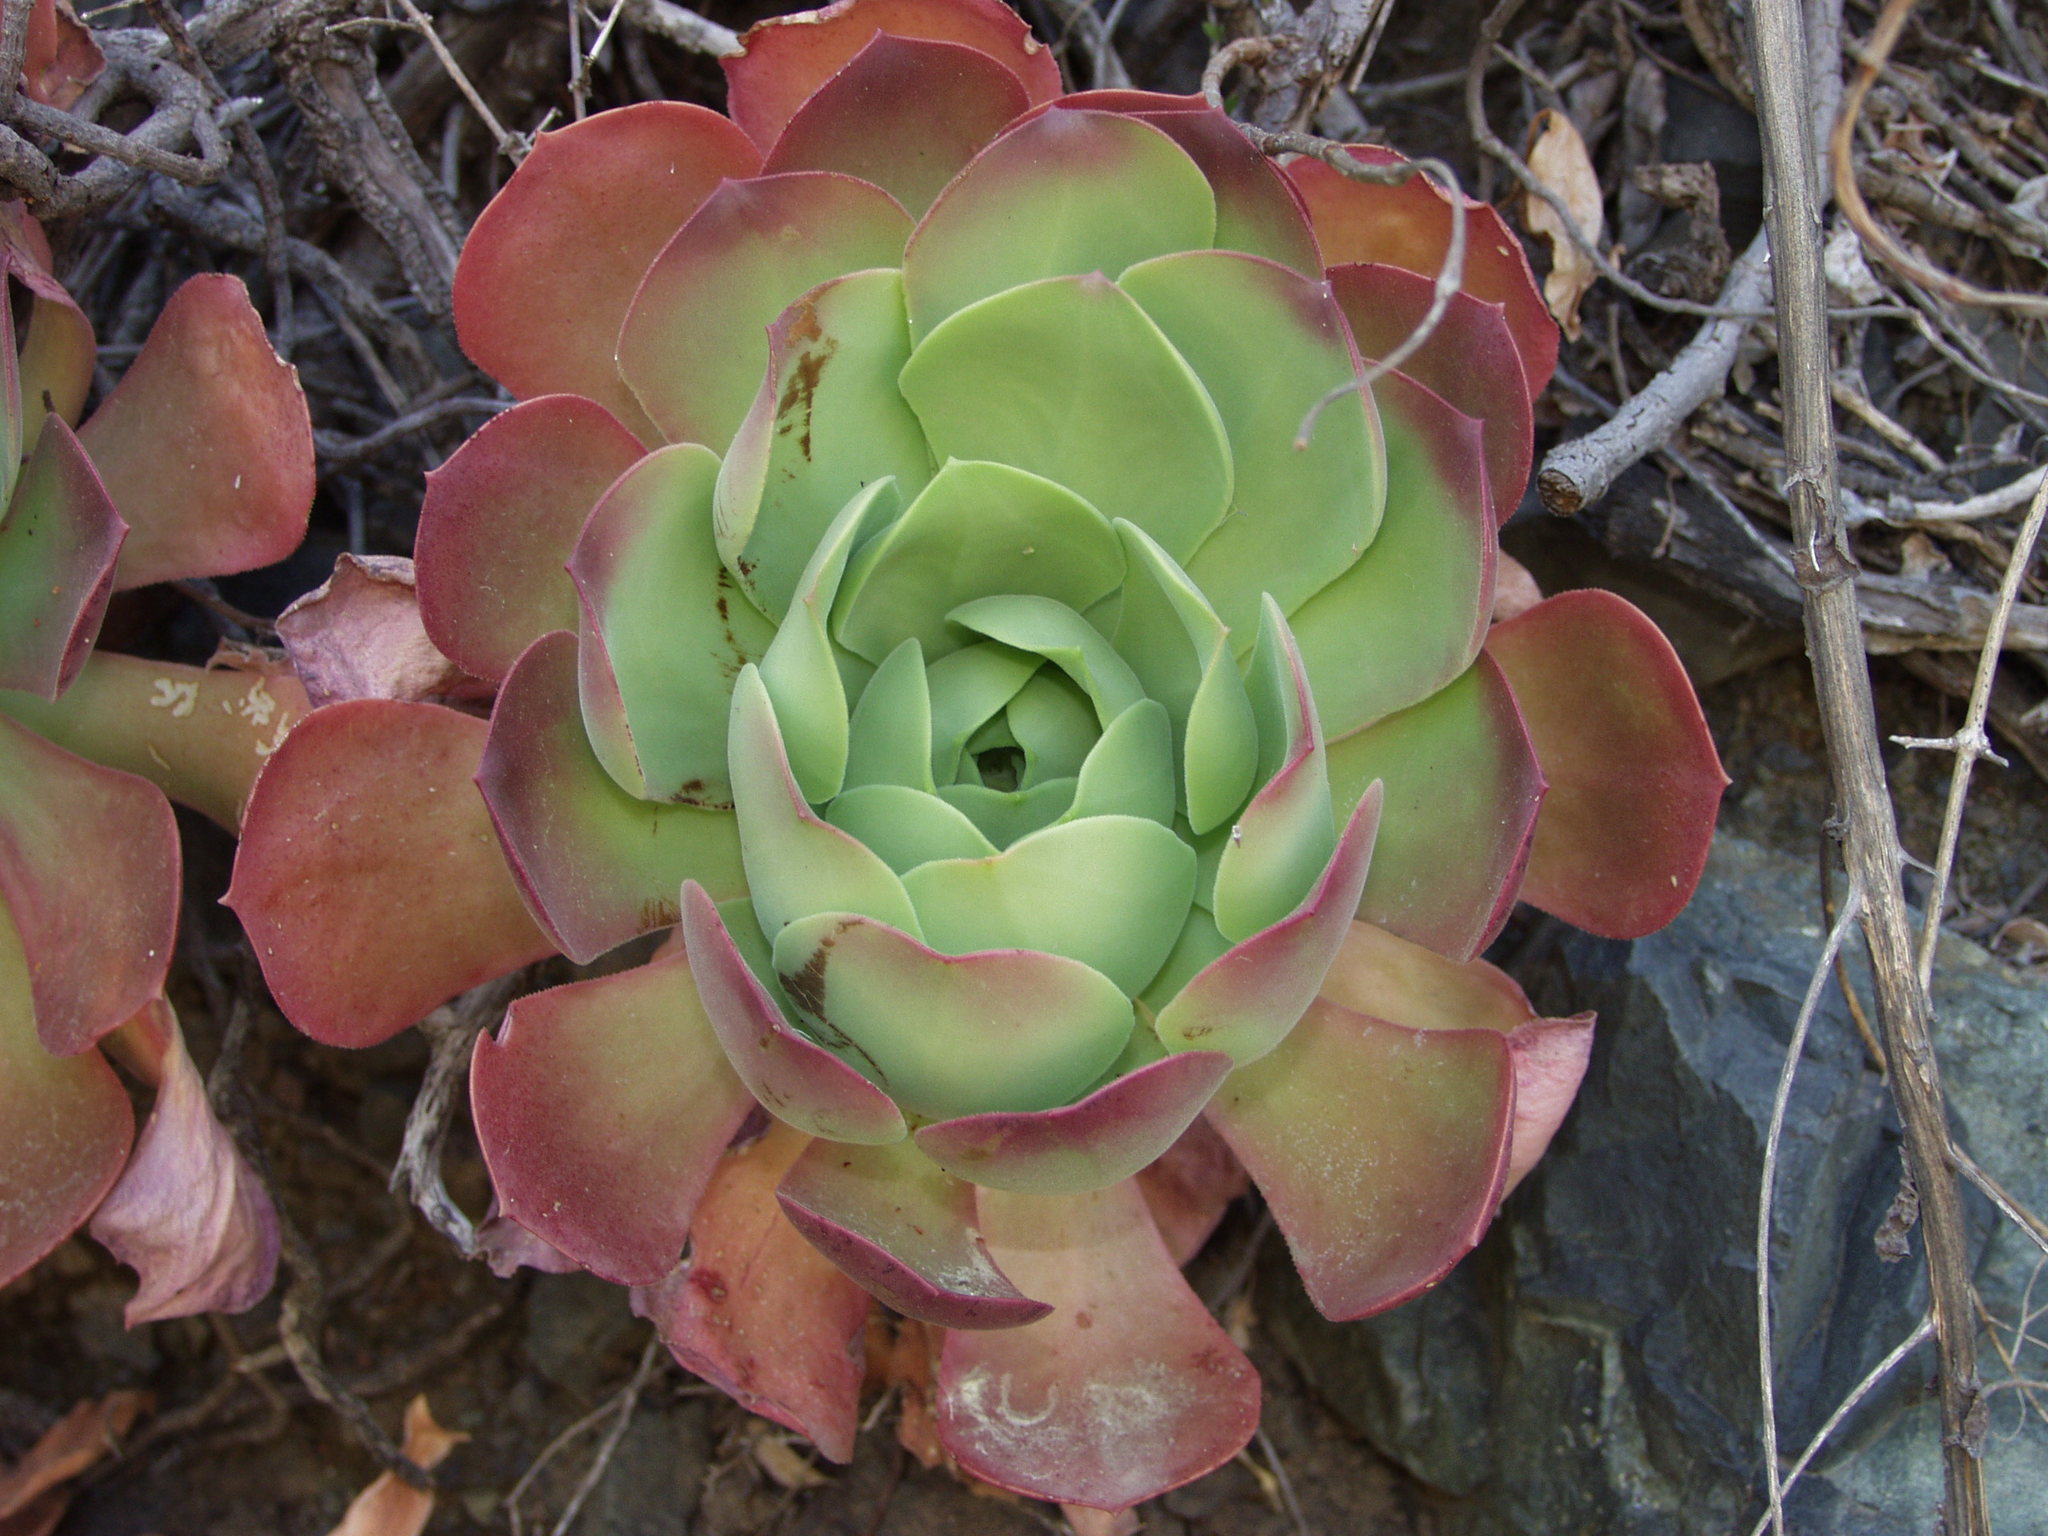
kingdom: Plantae
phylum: Tracheophyta
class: Magnoliopsida
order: Saxifragales
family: Crassulaceae
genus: Aeonium
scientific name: Aeonium canariense
